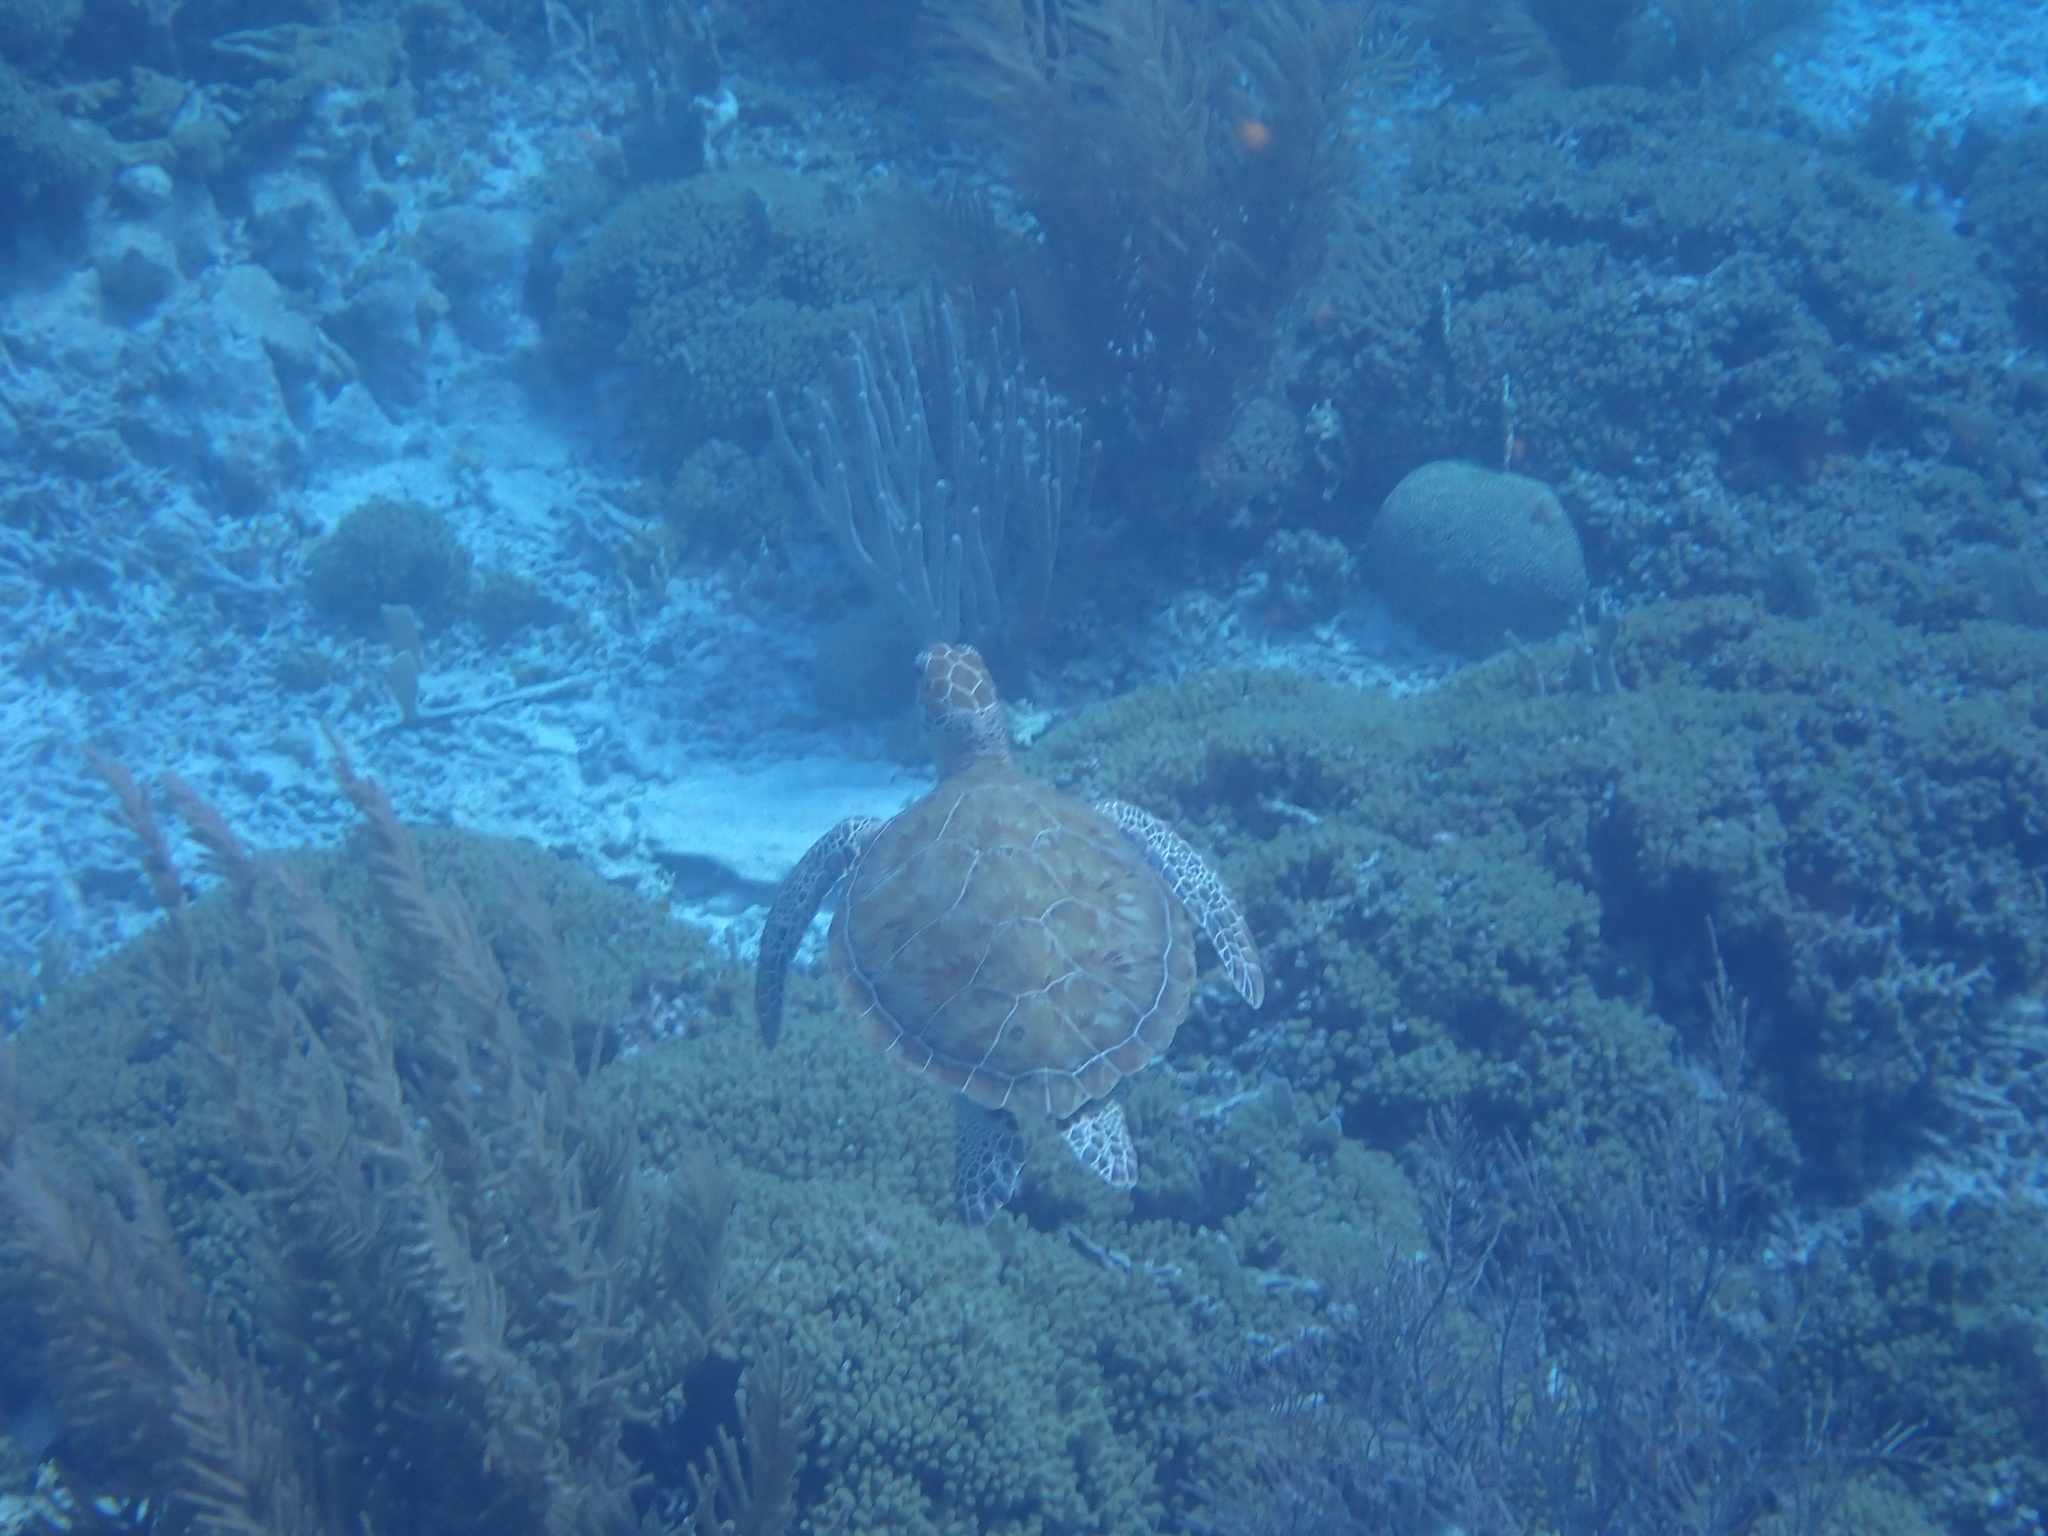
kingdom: Animalia
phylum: Chordata
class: Testudines
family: Cheloniidae
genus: Chelonia
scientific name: Chelonia mydas
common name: Green turtle
